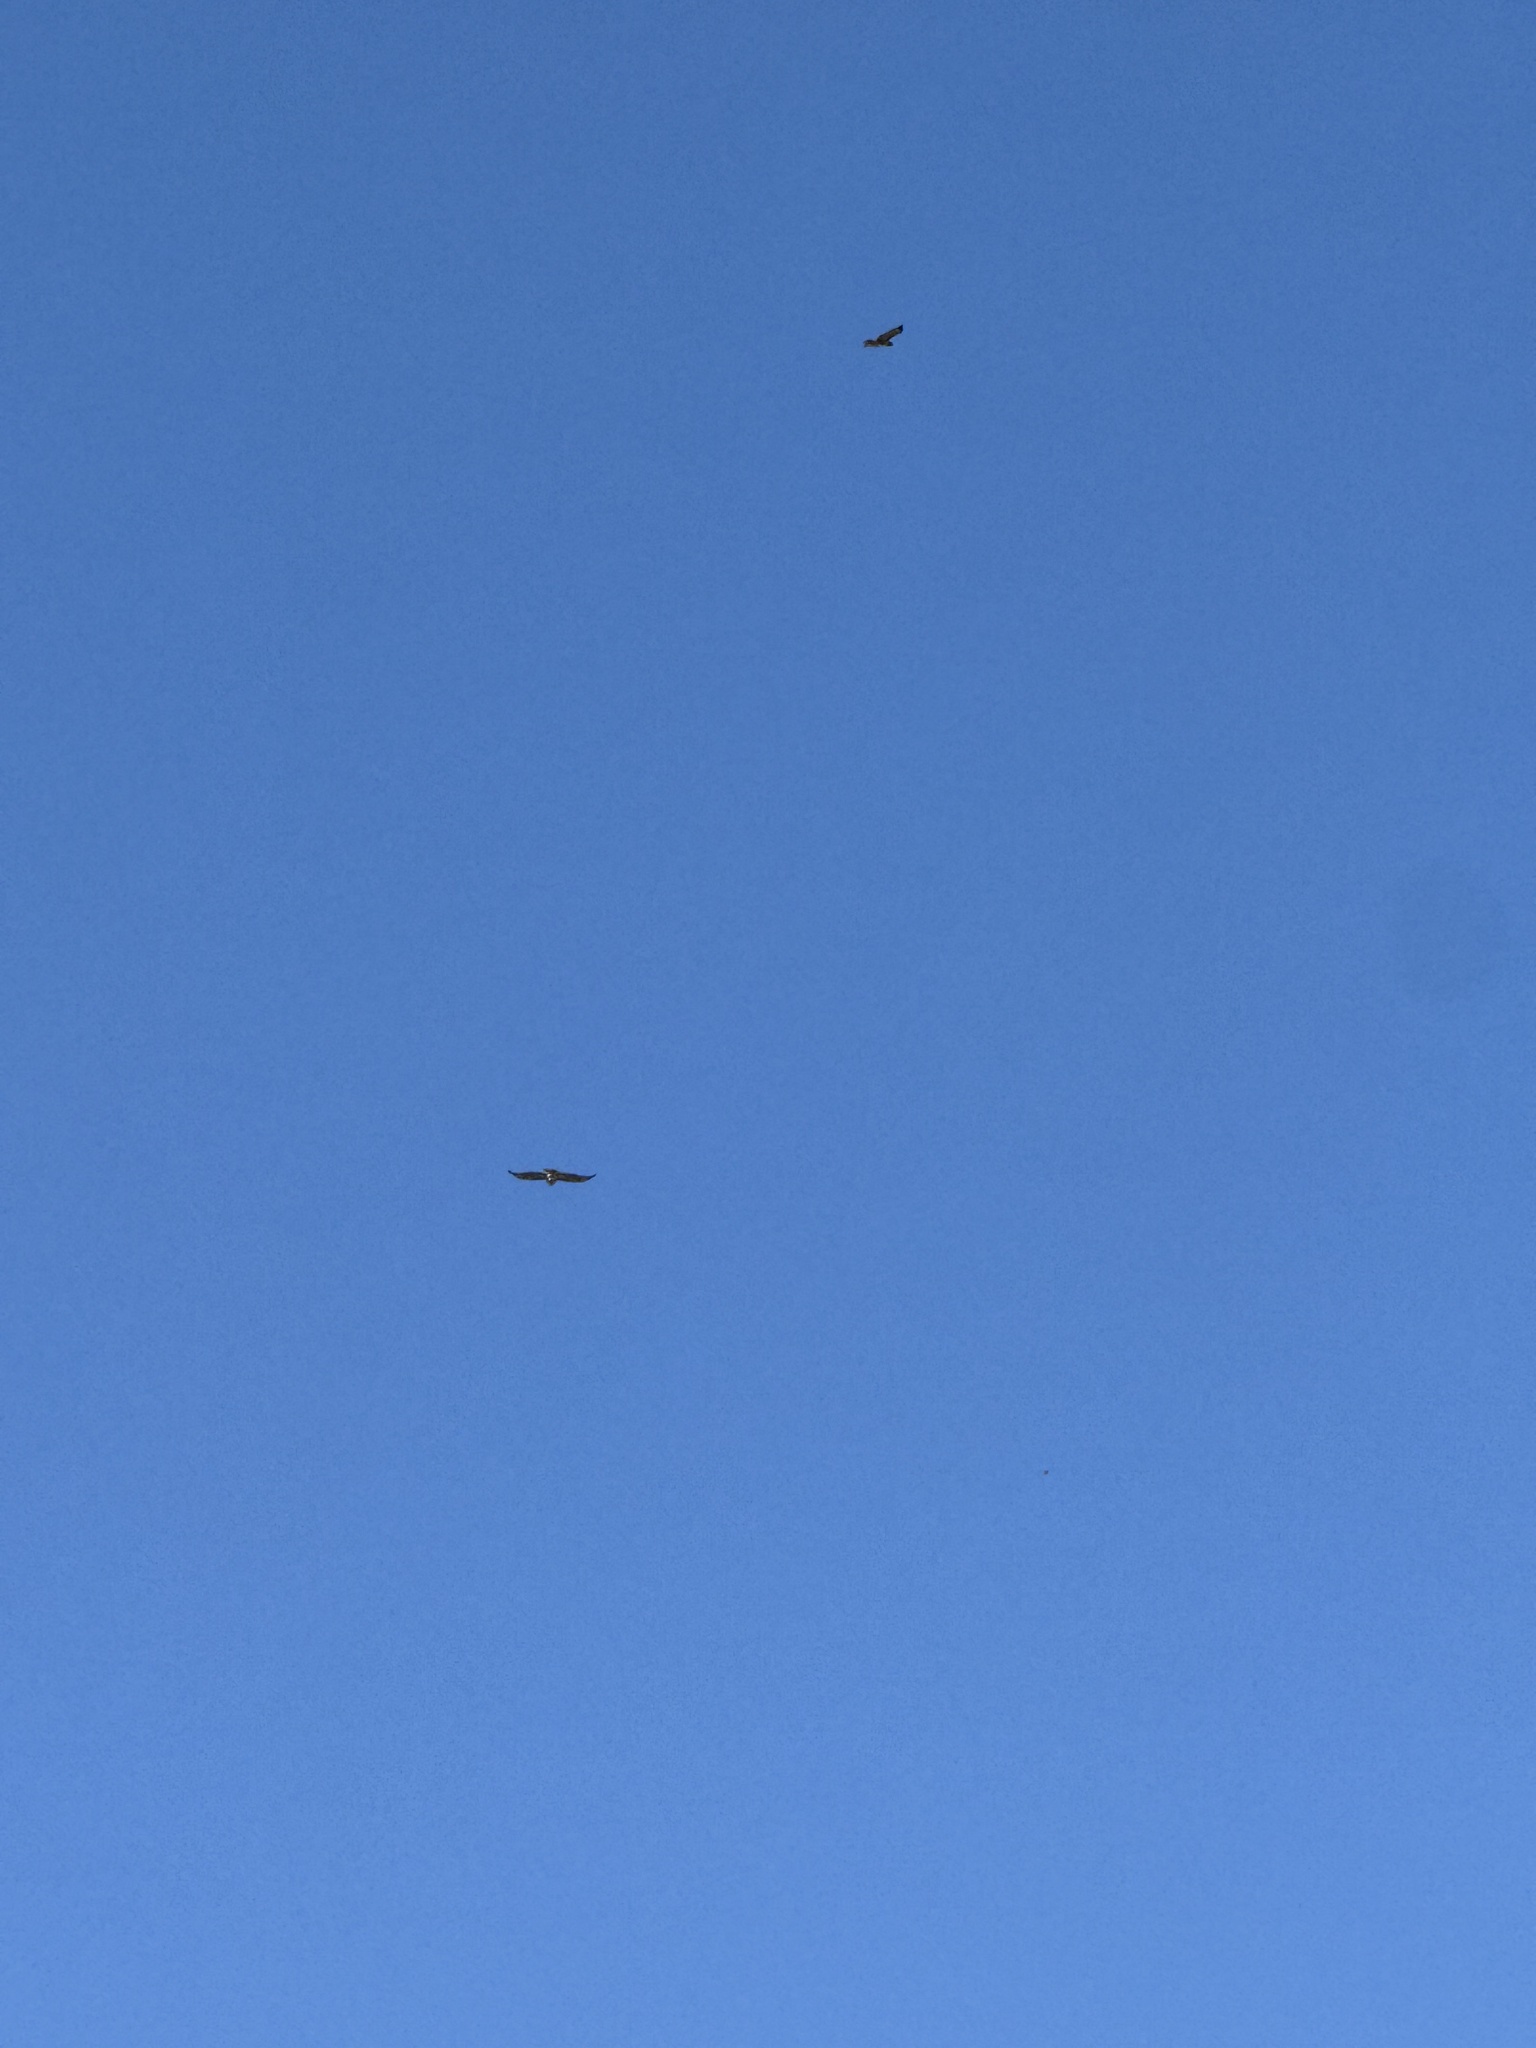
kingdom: Animalia
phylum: Chordata
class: Aves
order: Accipitriformes
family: Accipitridae
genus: Buteo
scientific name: Buteo jamaicensis
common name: Red-tailed hawk
